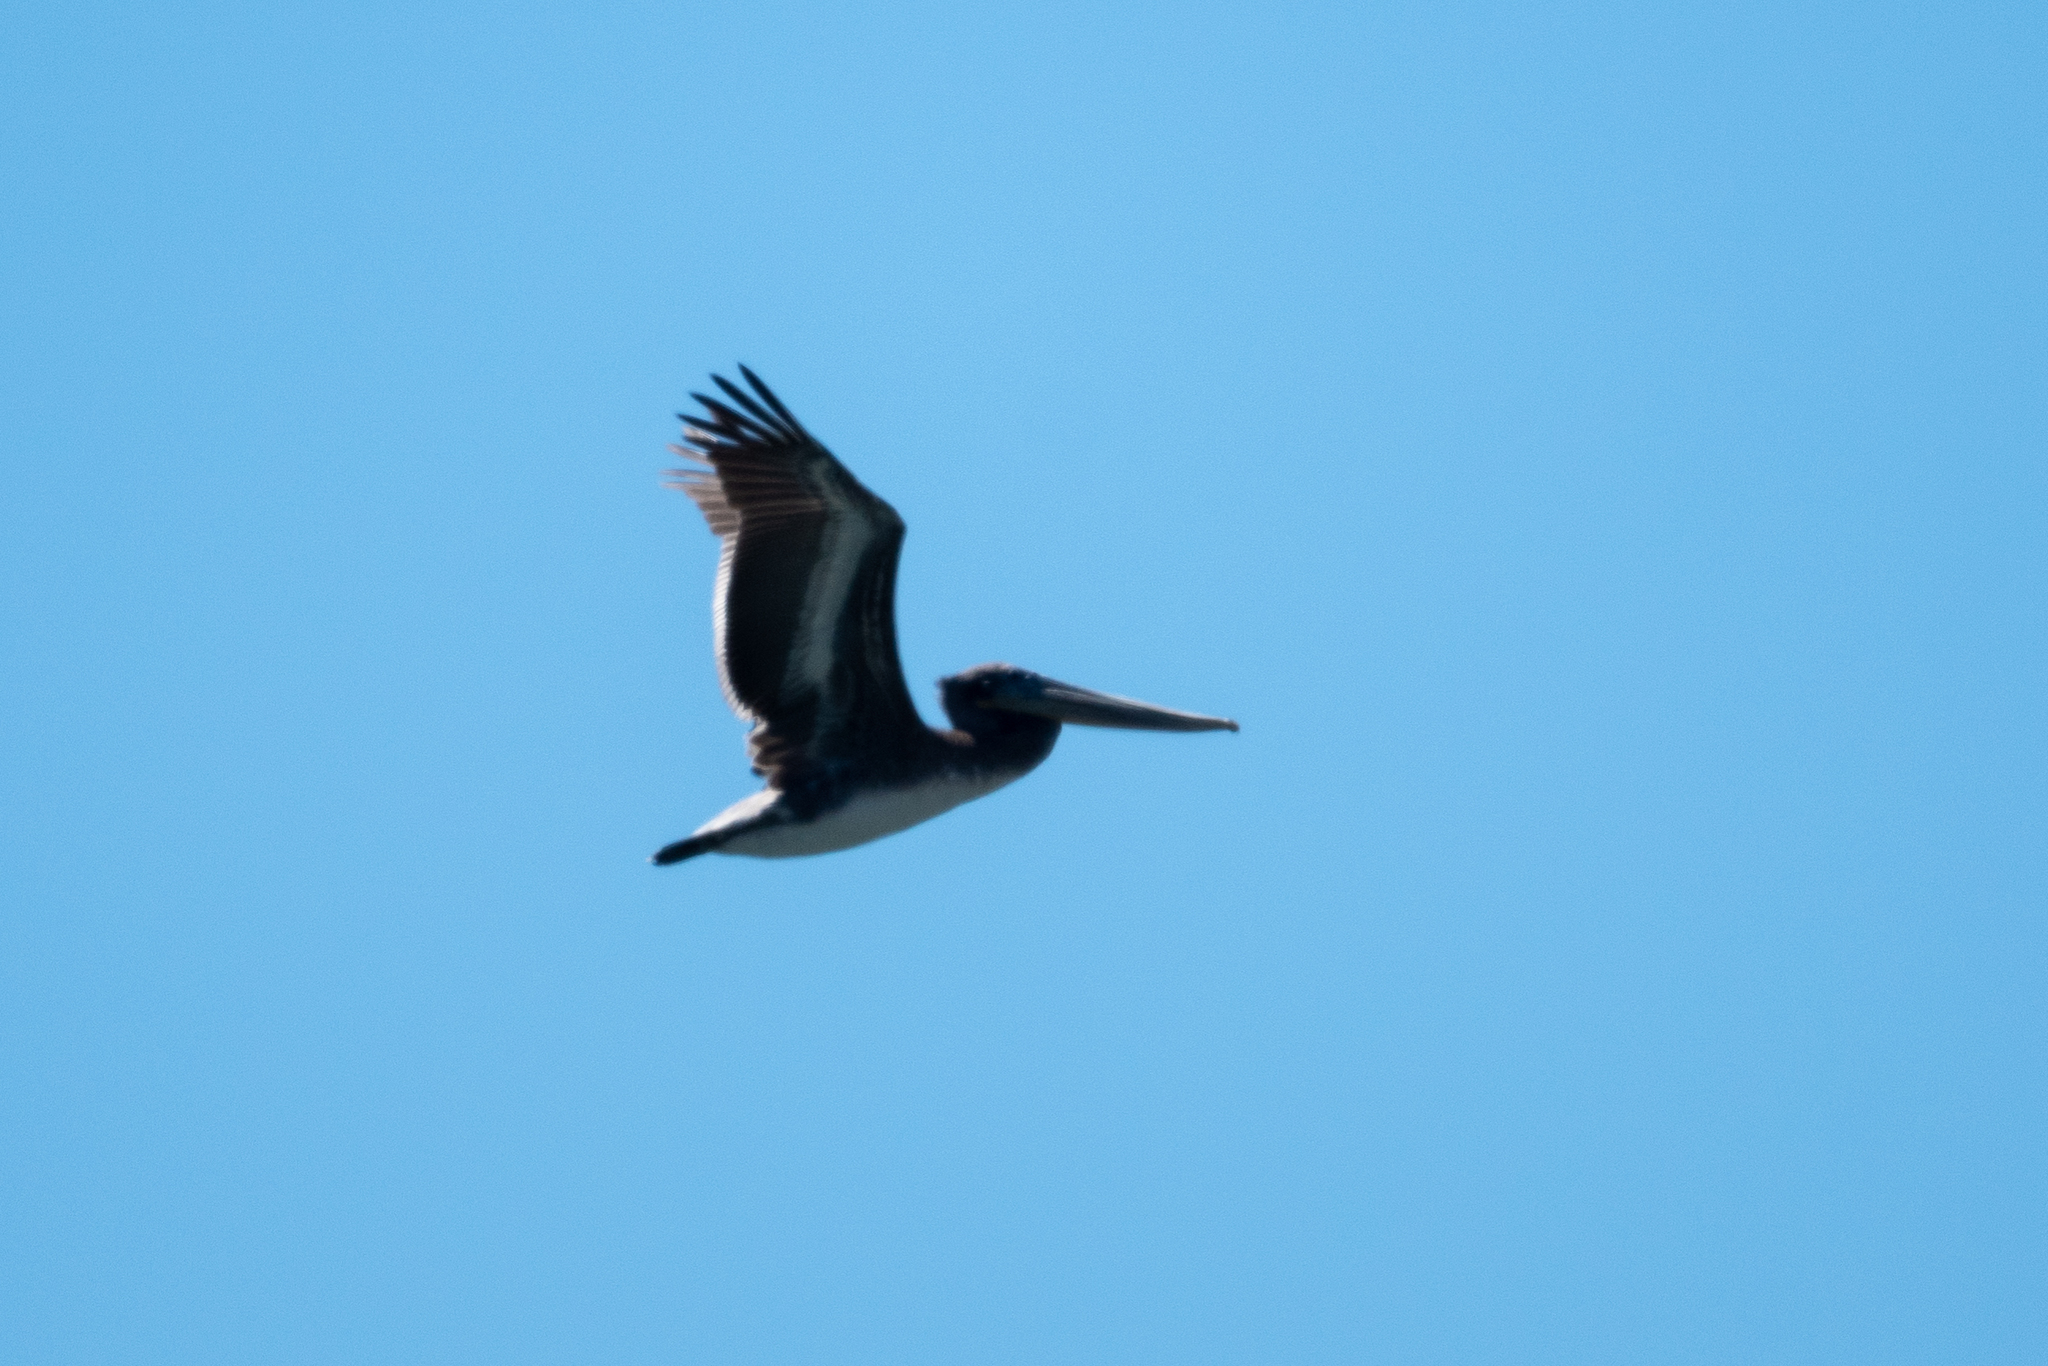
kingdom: Animalia
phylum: Chordata
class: Aves
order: Pelecaniformes
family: Pelecanidae
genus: Pelecanus
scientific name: Pelecanus occidentalis
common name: Brown pelican
